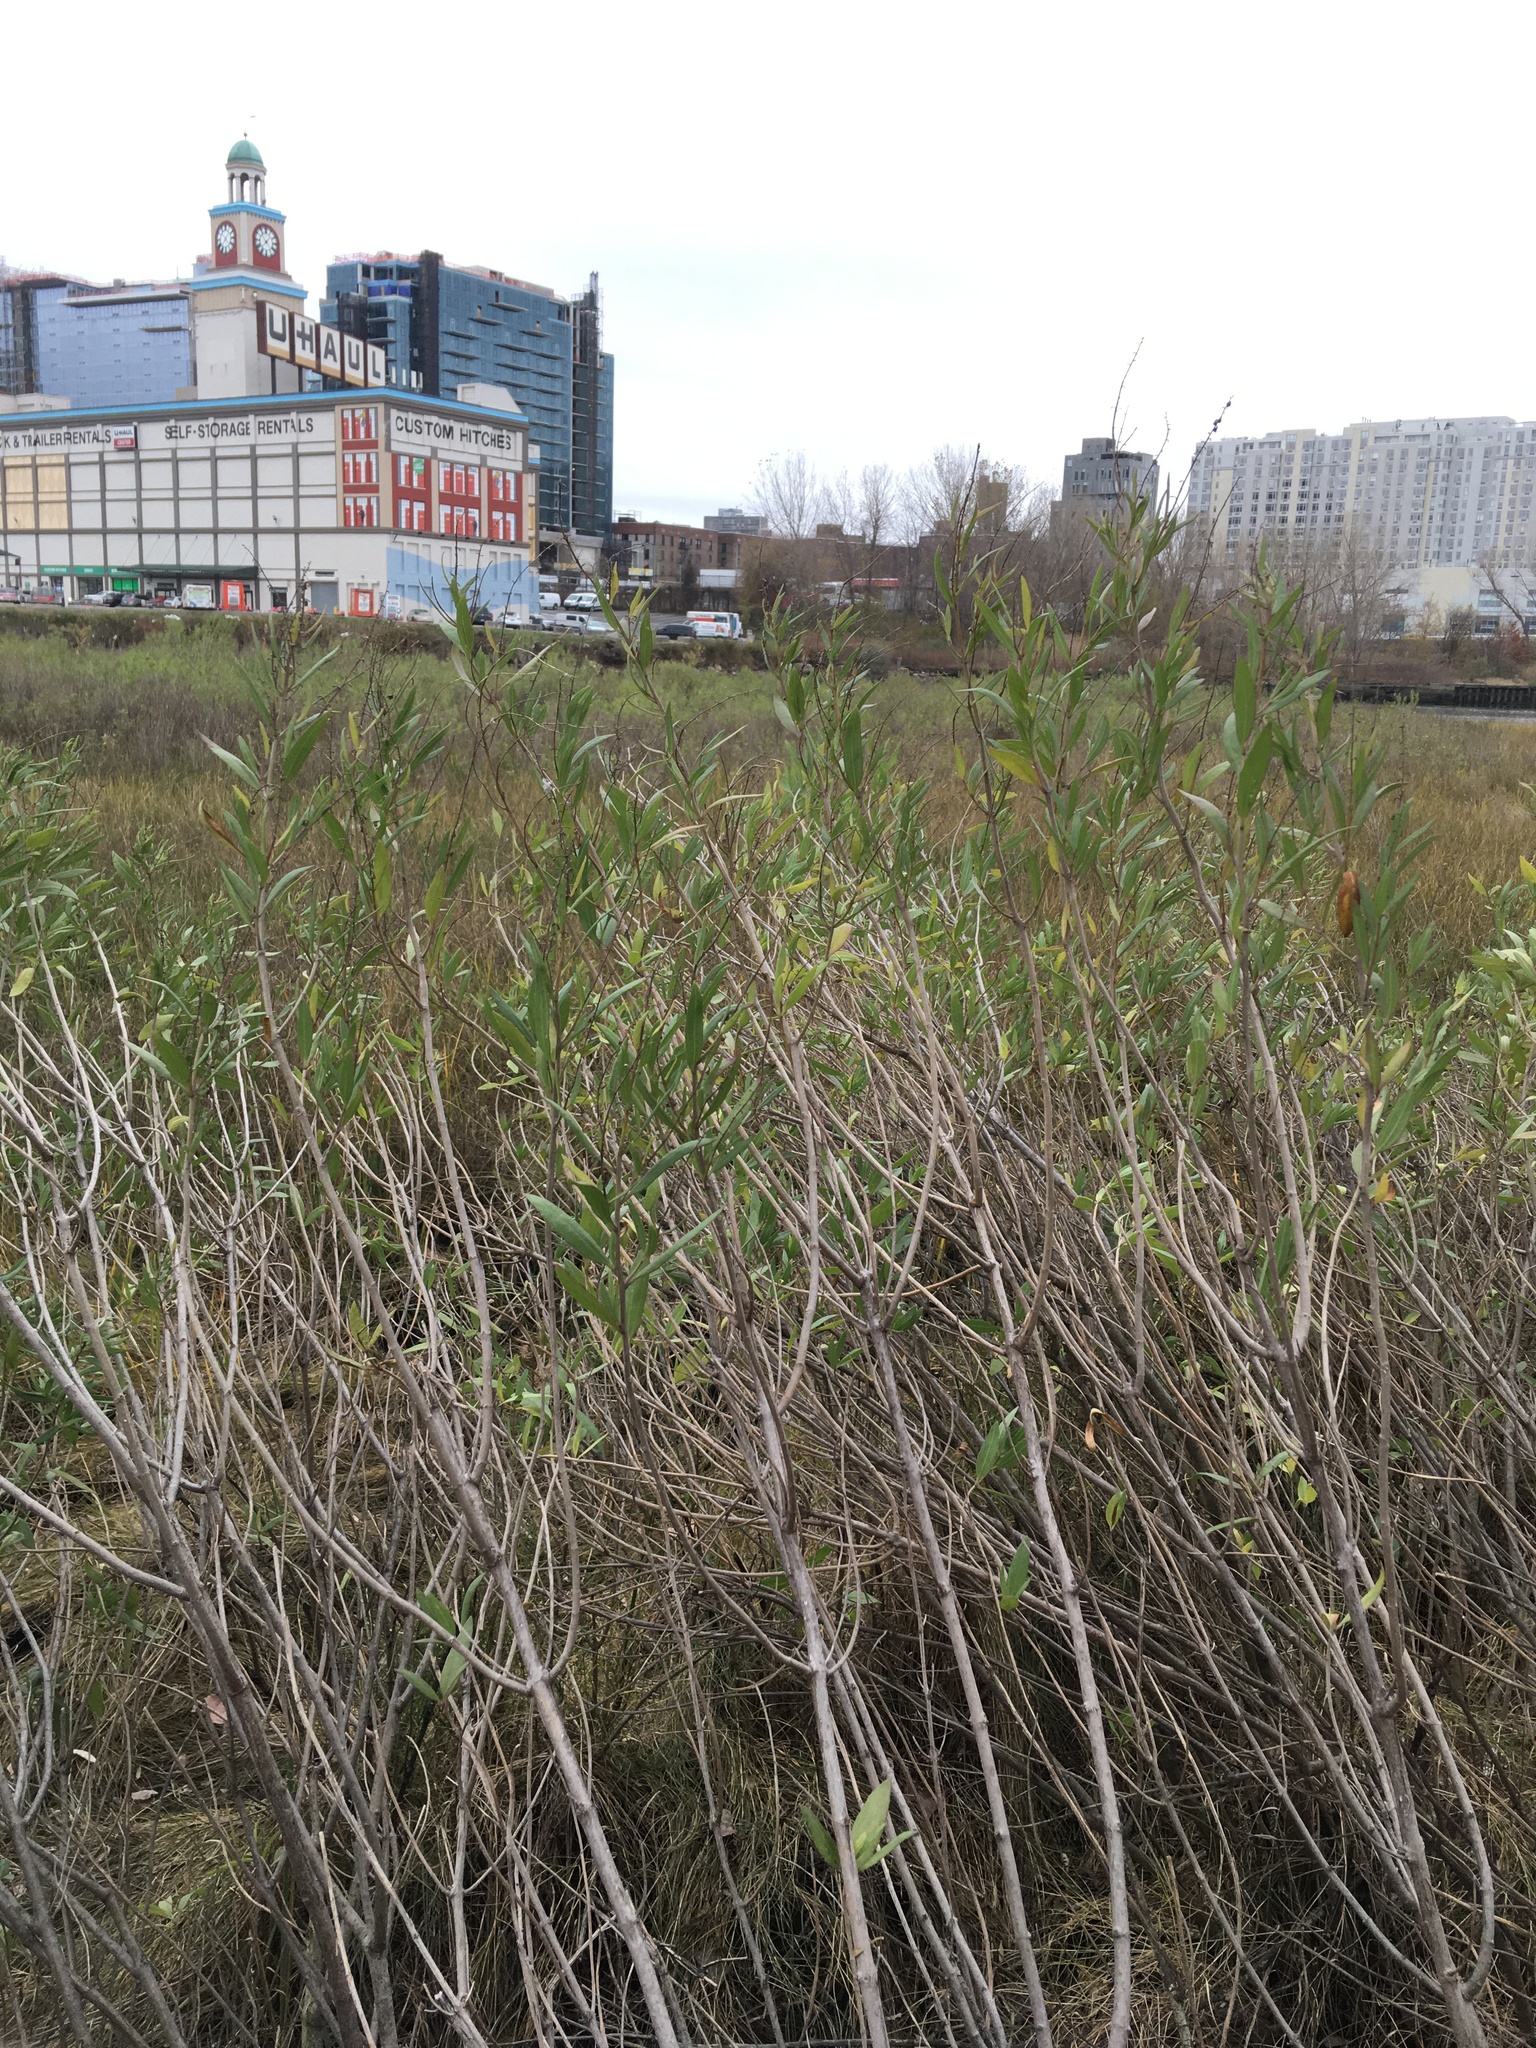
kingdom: Plantae
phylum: Tracheophyta
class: Magnoliopsida
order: Asterales
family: Asteraceae
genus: Iva
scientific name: Iva frutescens
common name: Big-leaved marsh-elder
